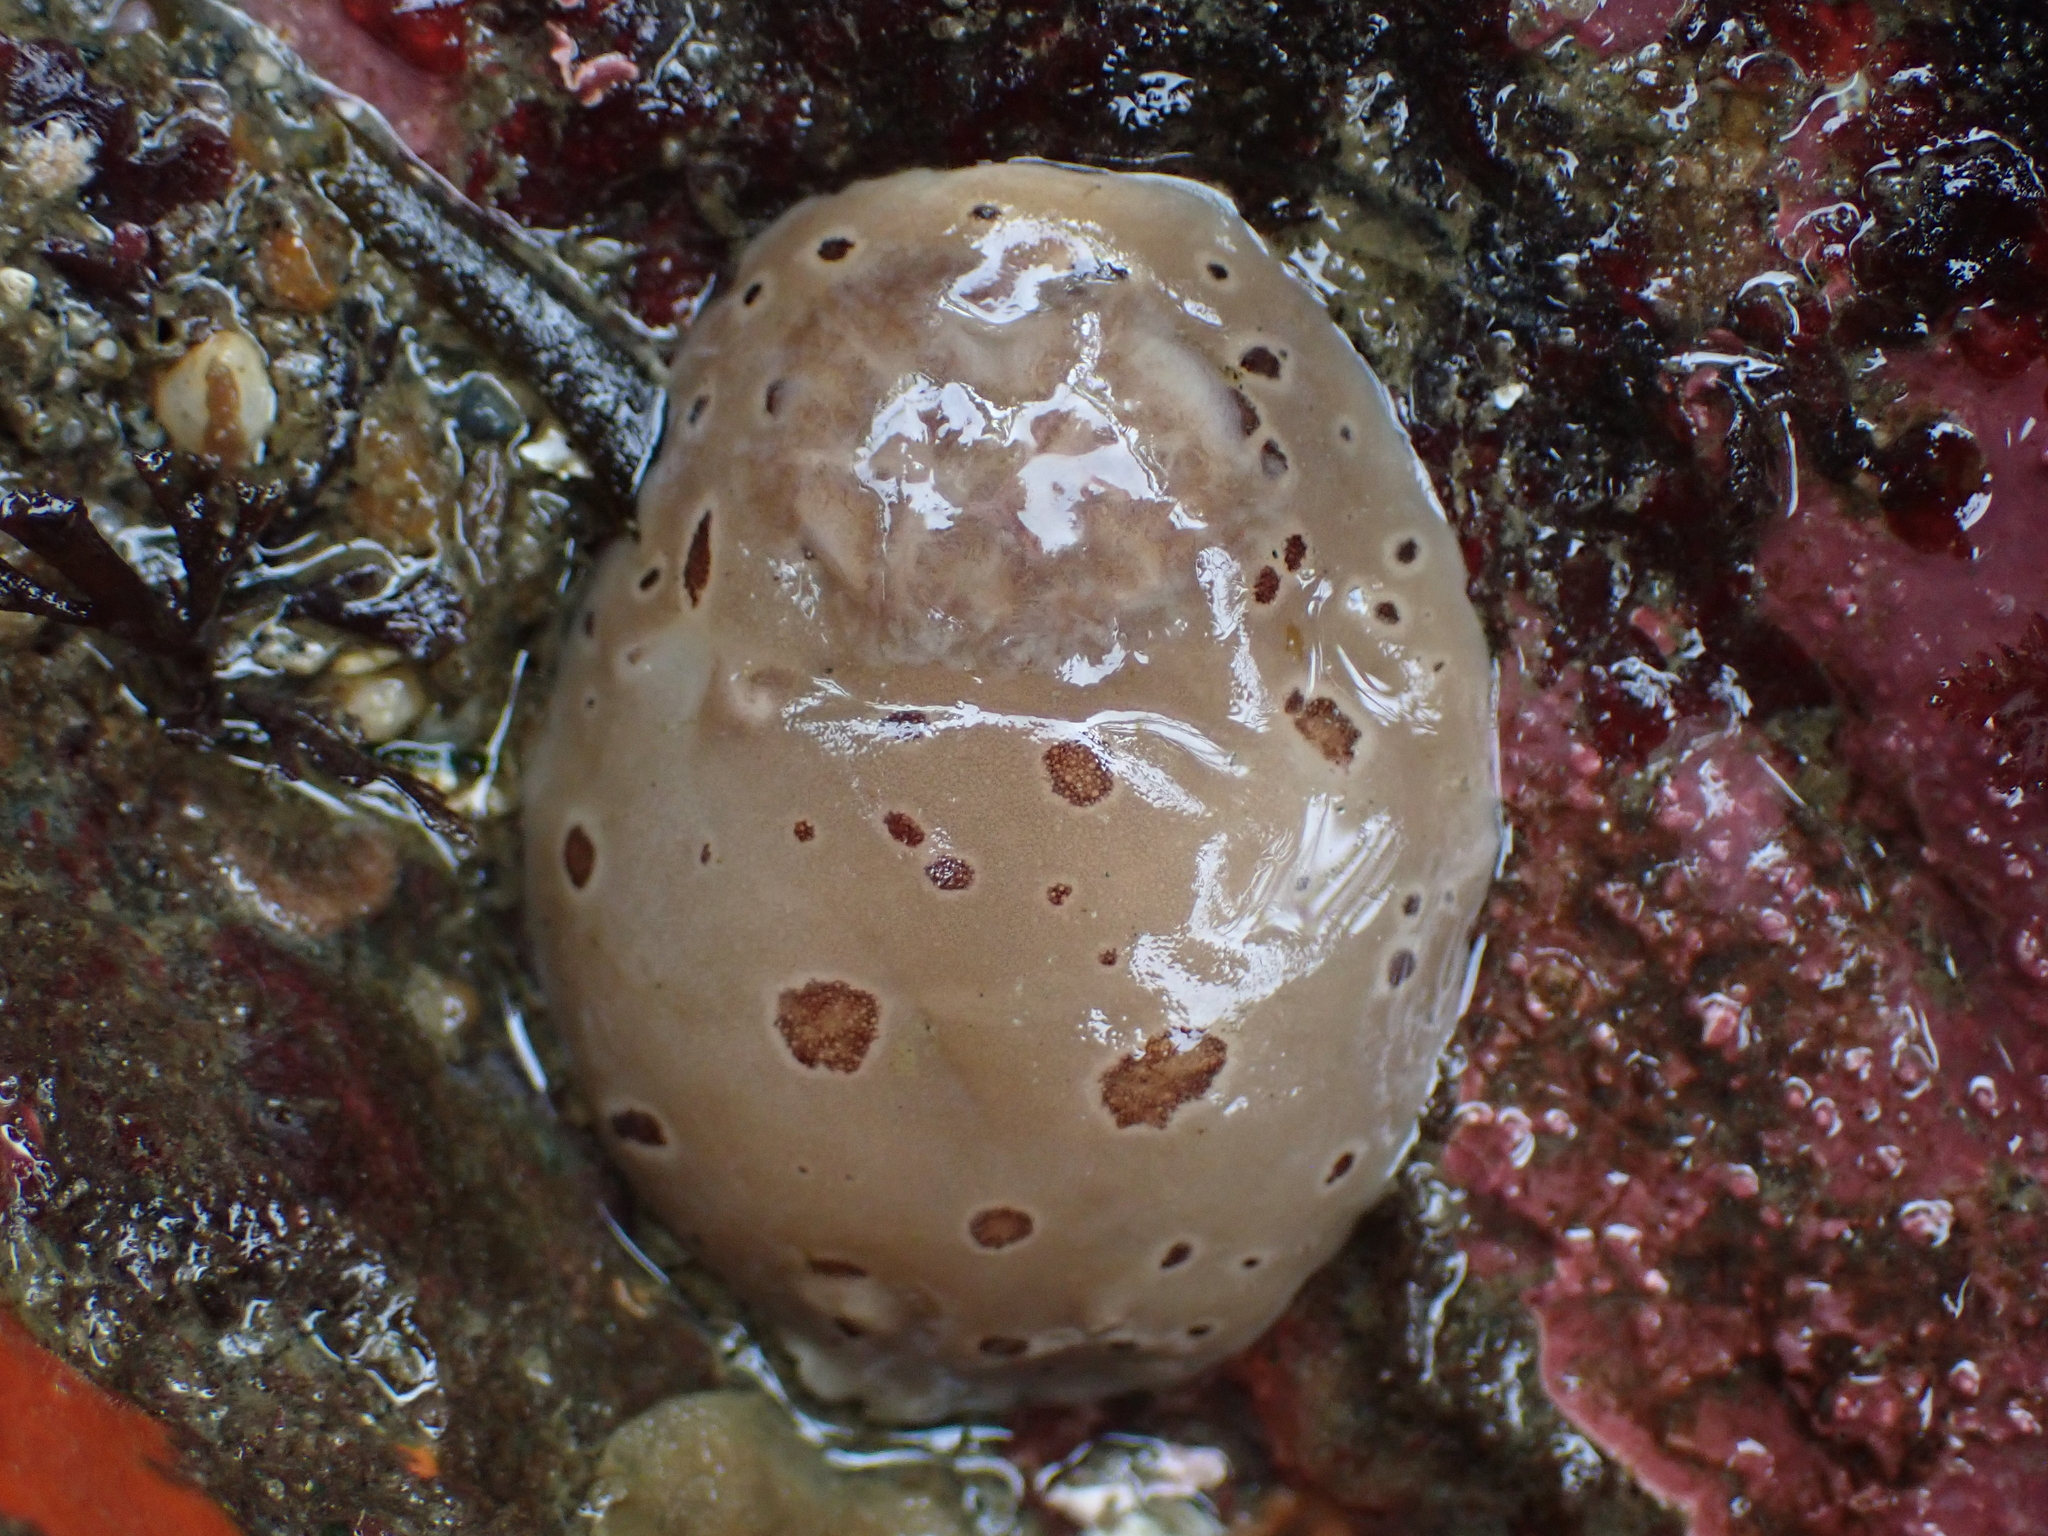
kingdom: Animalia
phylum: Mollusca
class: Gastropoda
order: Nudibranchia
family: Discodorididae
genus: Diaulula
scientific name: Diaulula odonoghuei
